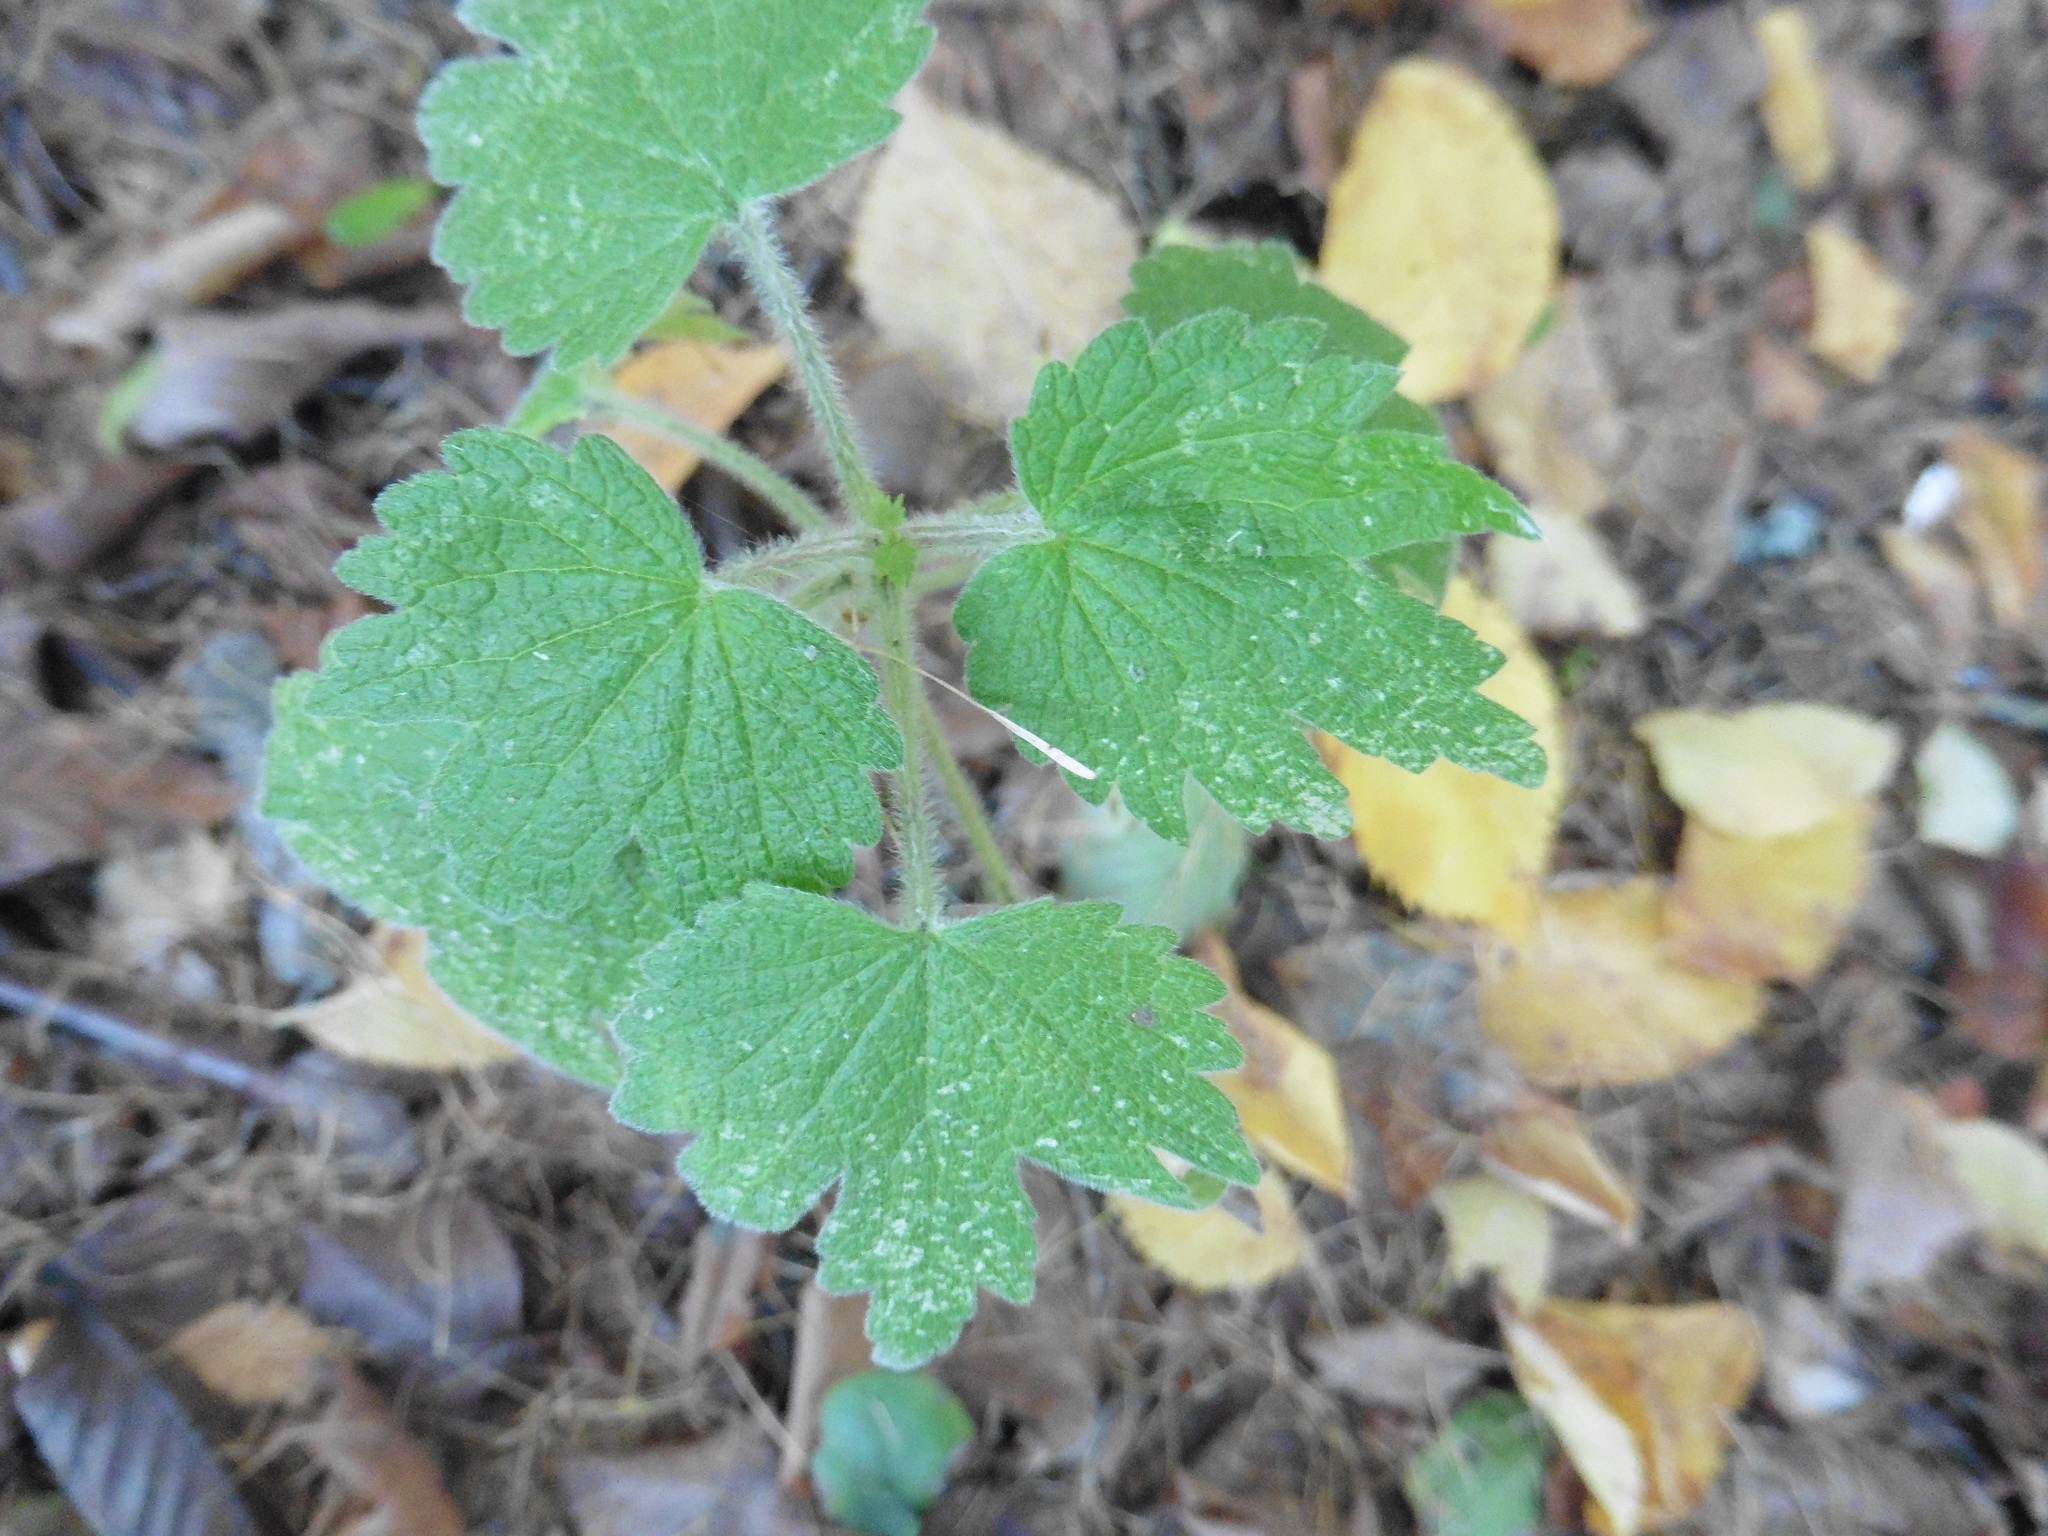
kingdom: Plantae
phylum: Tracheophyta
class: Magnoliopsida
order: Lamiales
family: Lamiaceae
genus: Leonurus
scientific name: Leonurus quinquelobatus
